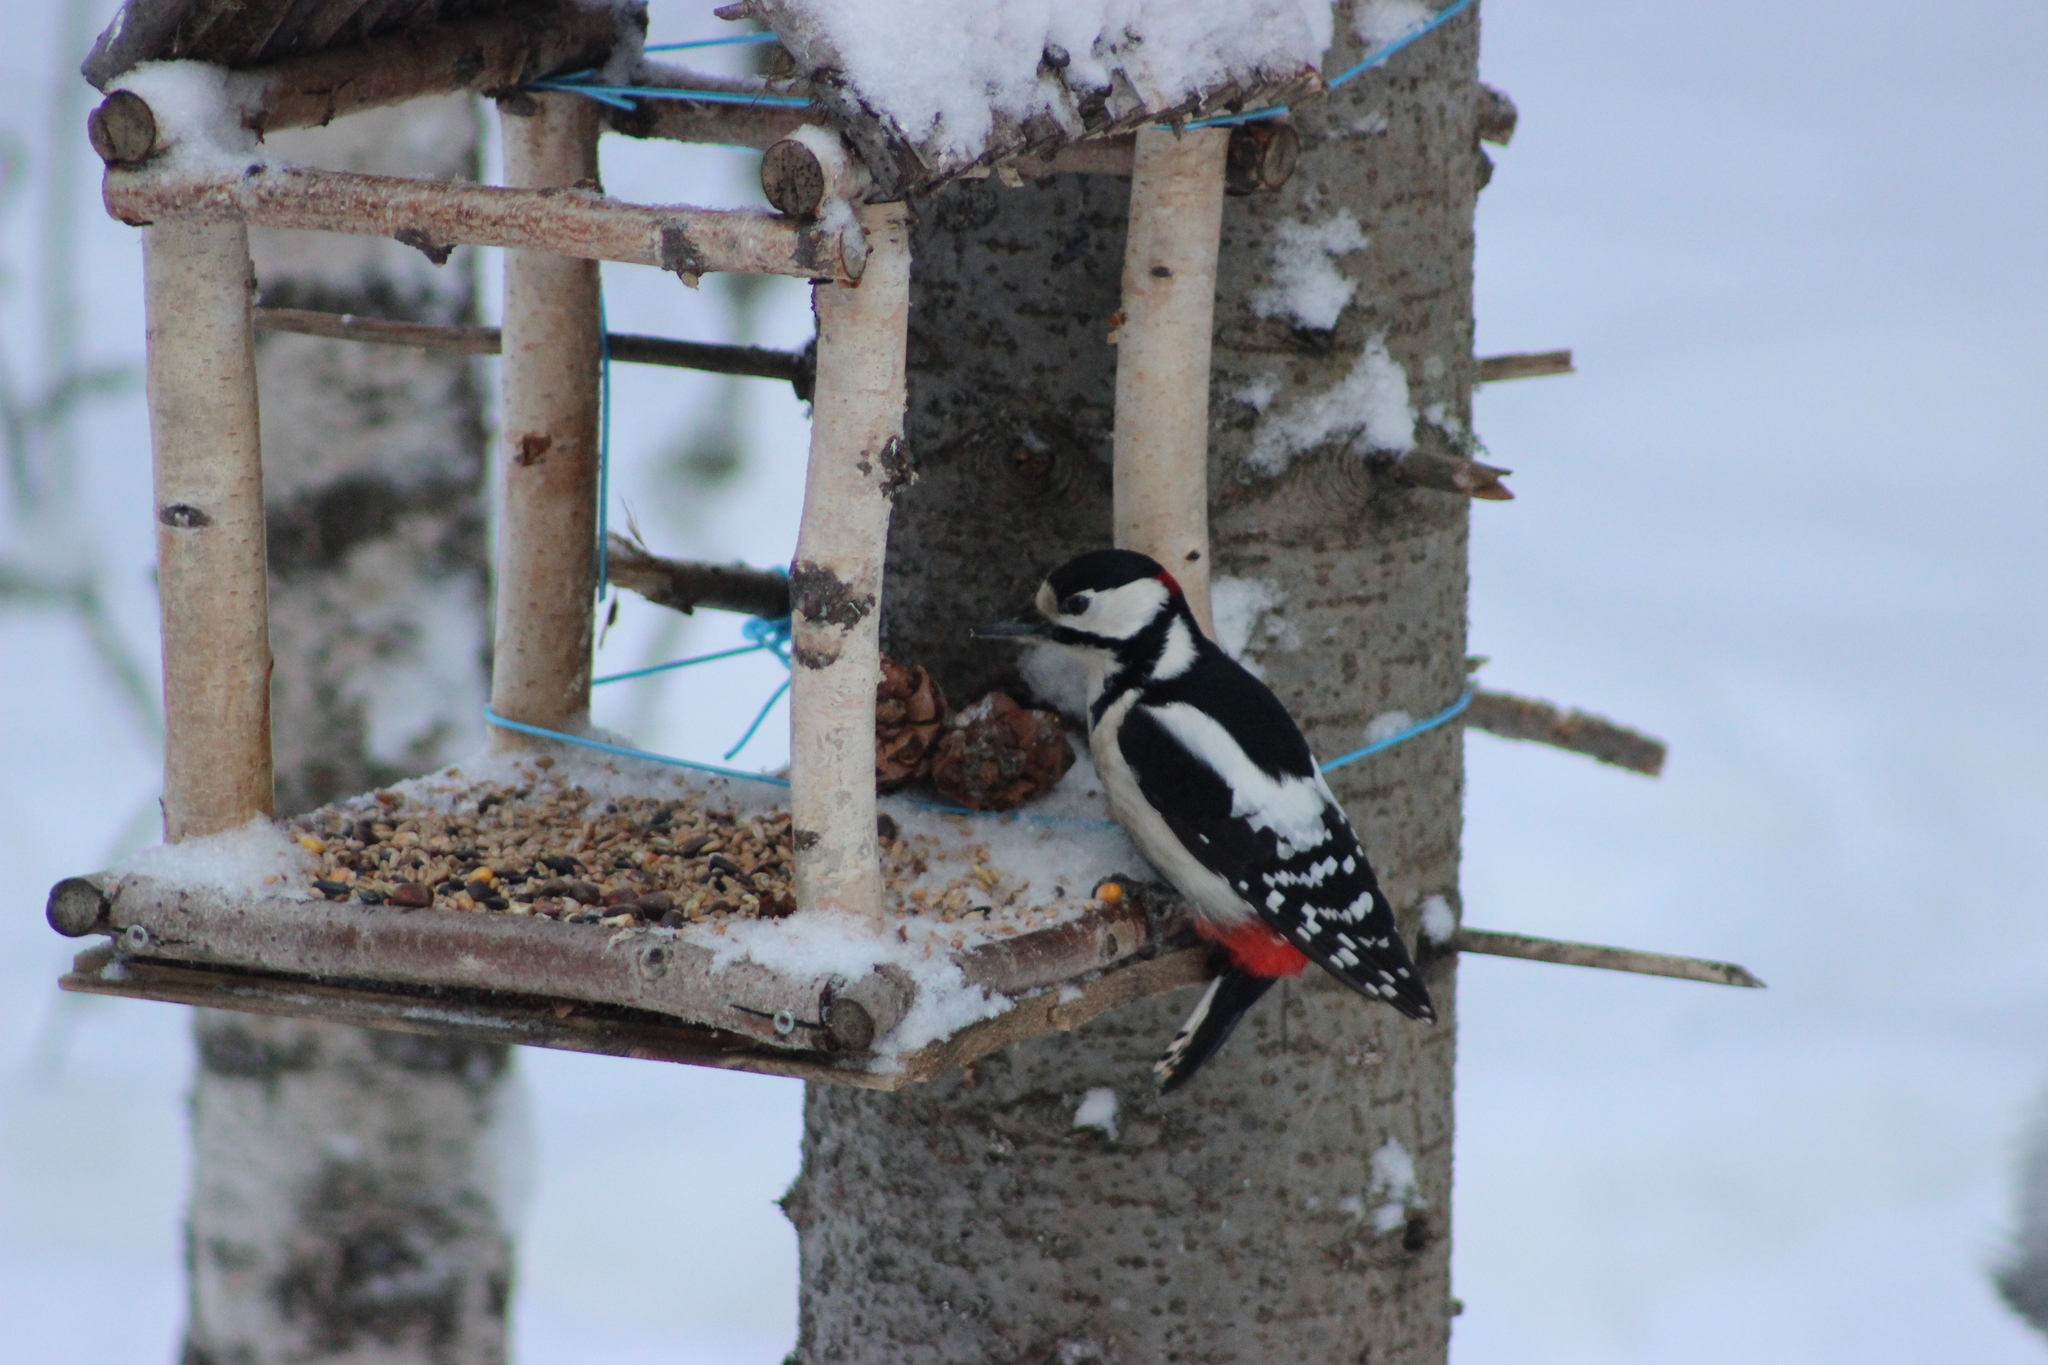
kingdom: Animalia
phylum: Chordata
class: Aves
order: Piciformes
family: Picidae
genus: Dendrocopos
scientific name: Dendrocopos major
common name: Great spotted woodpecker
